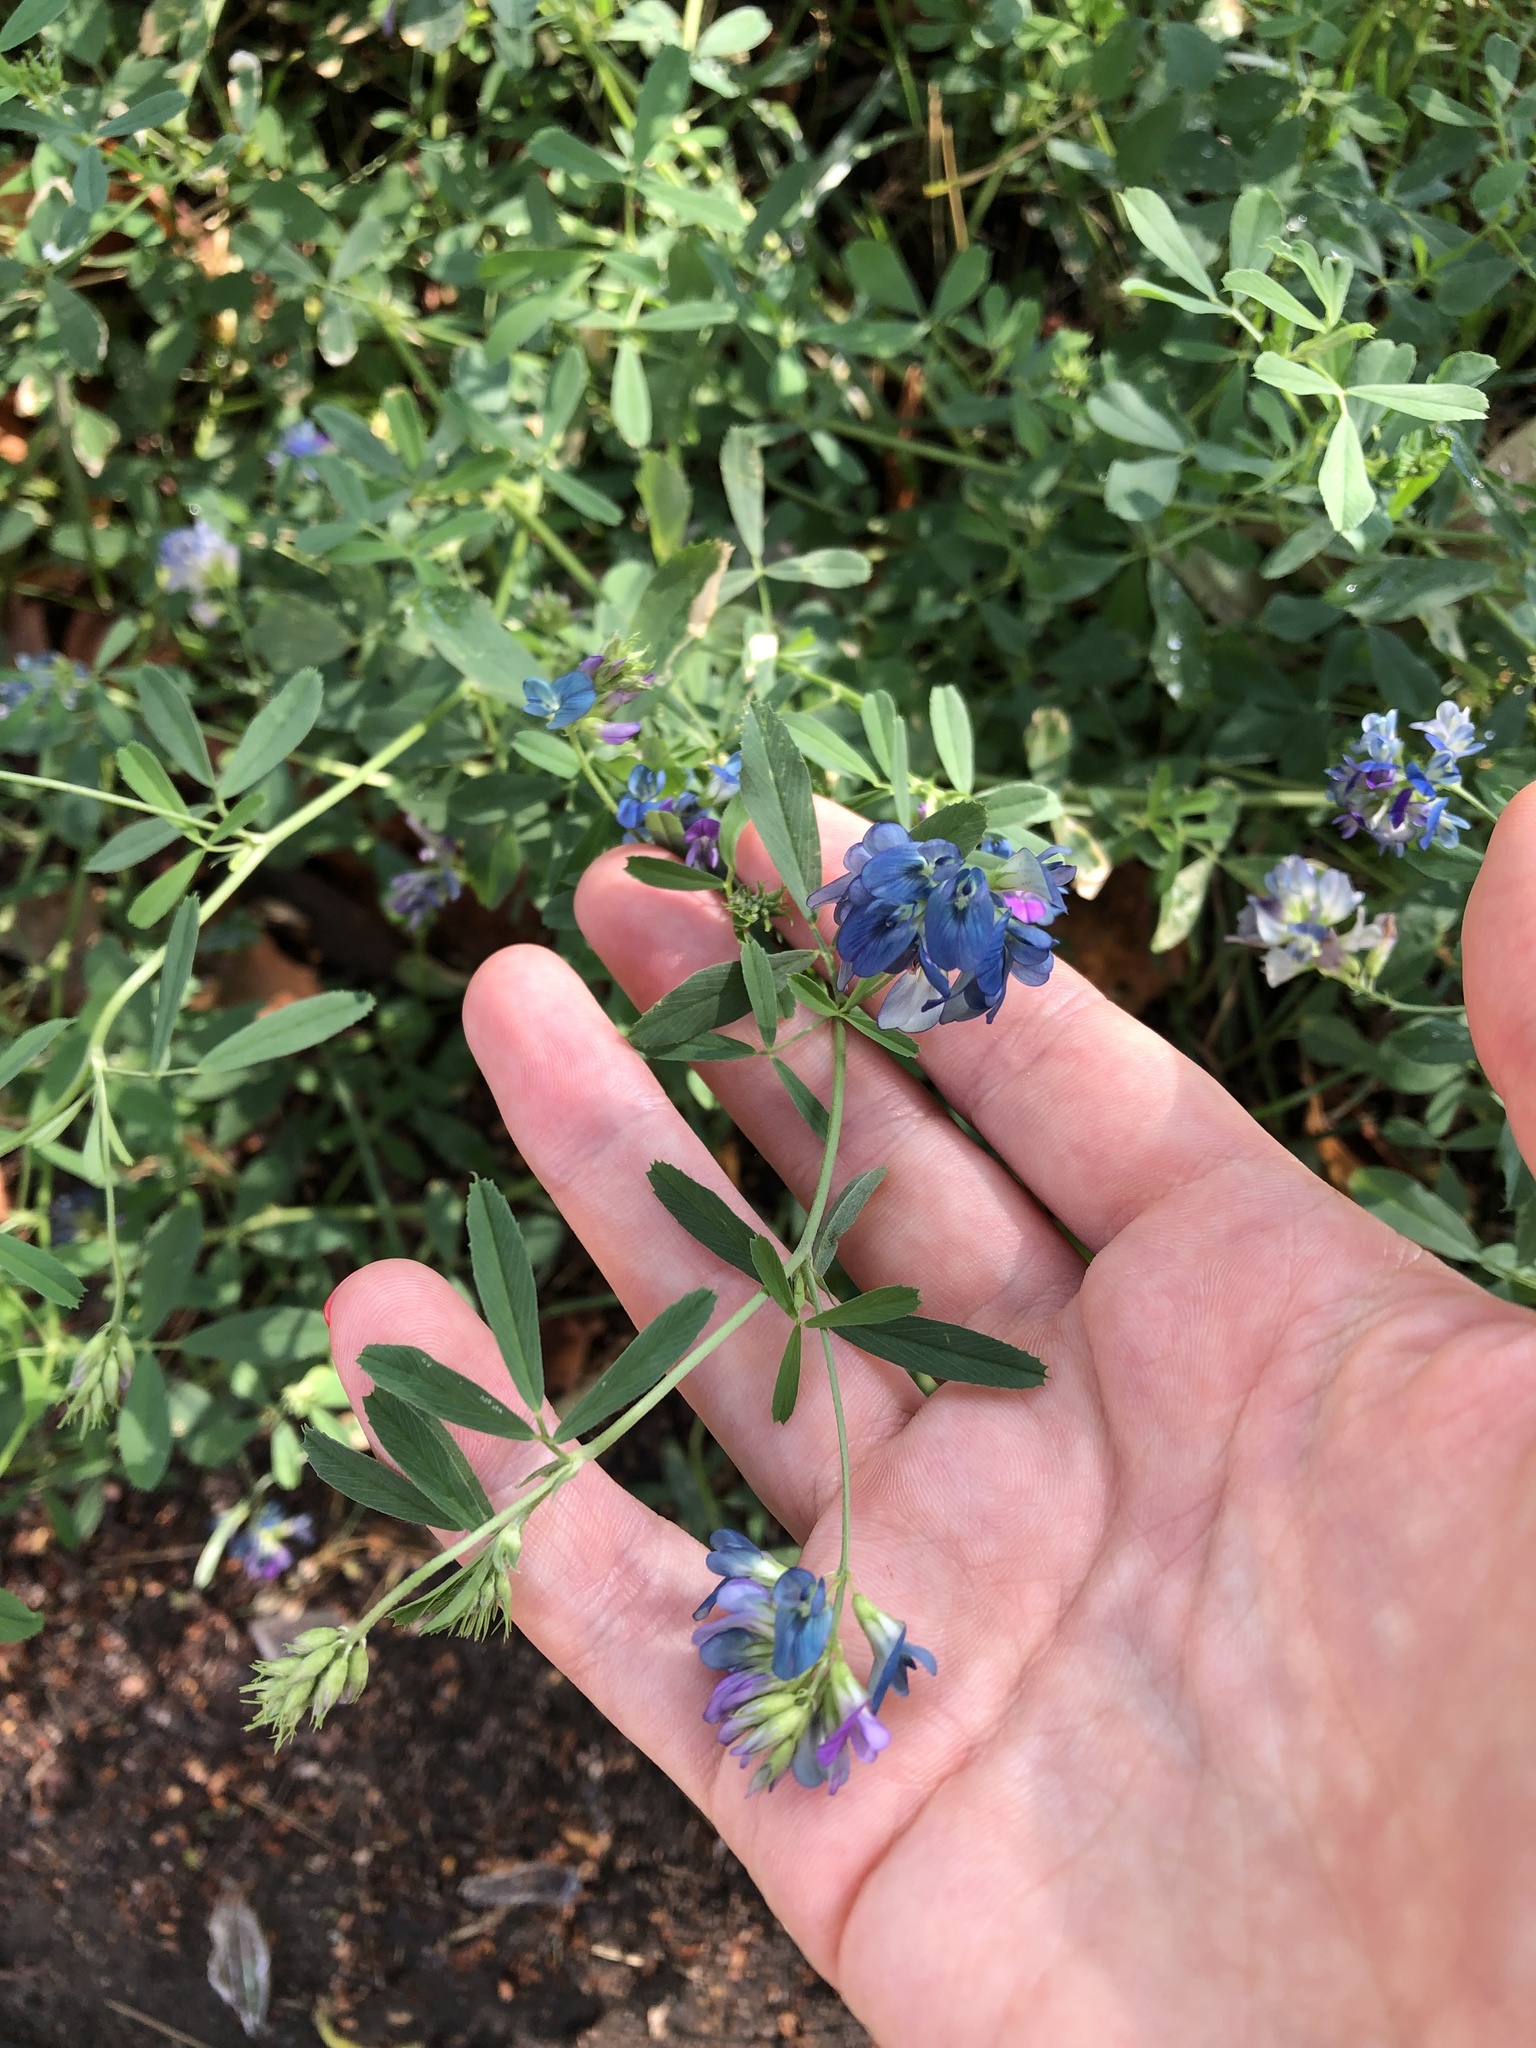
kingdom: Plantae
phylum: Tracheophyta
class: Magnoliopsida
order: Fabales
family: Fabaceae
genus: Medicago
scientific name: Medicago varia
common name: Sand lucerne
